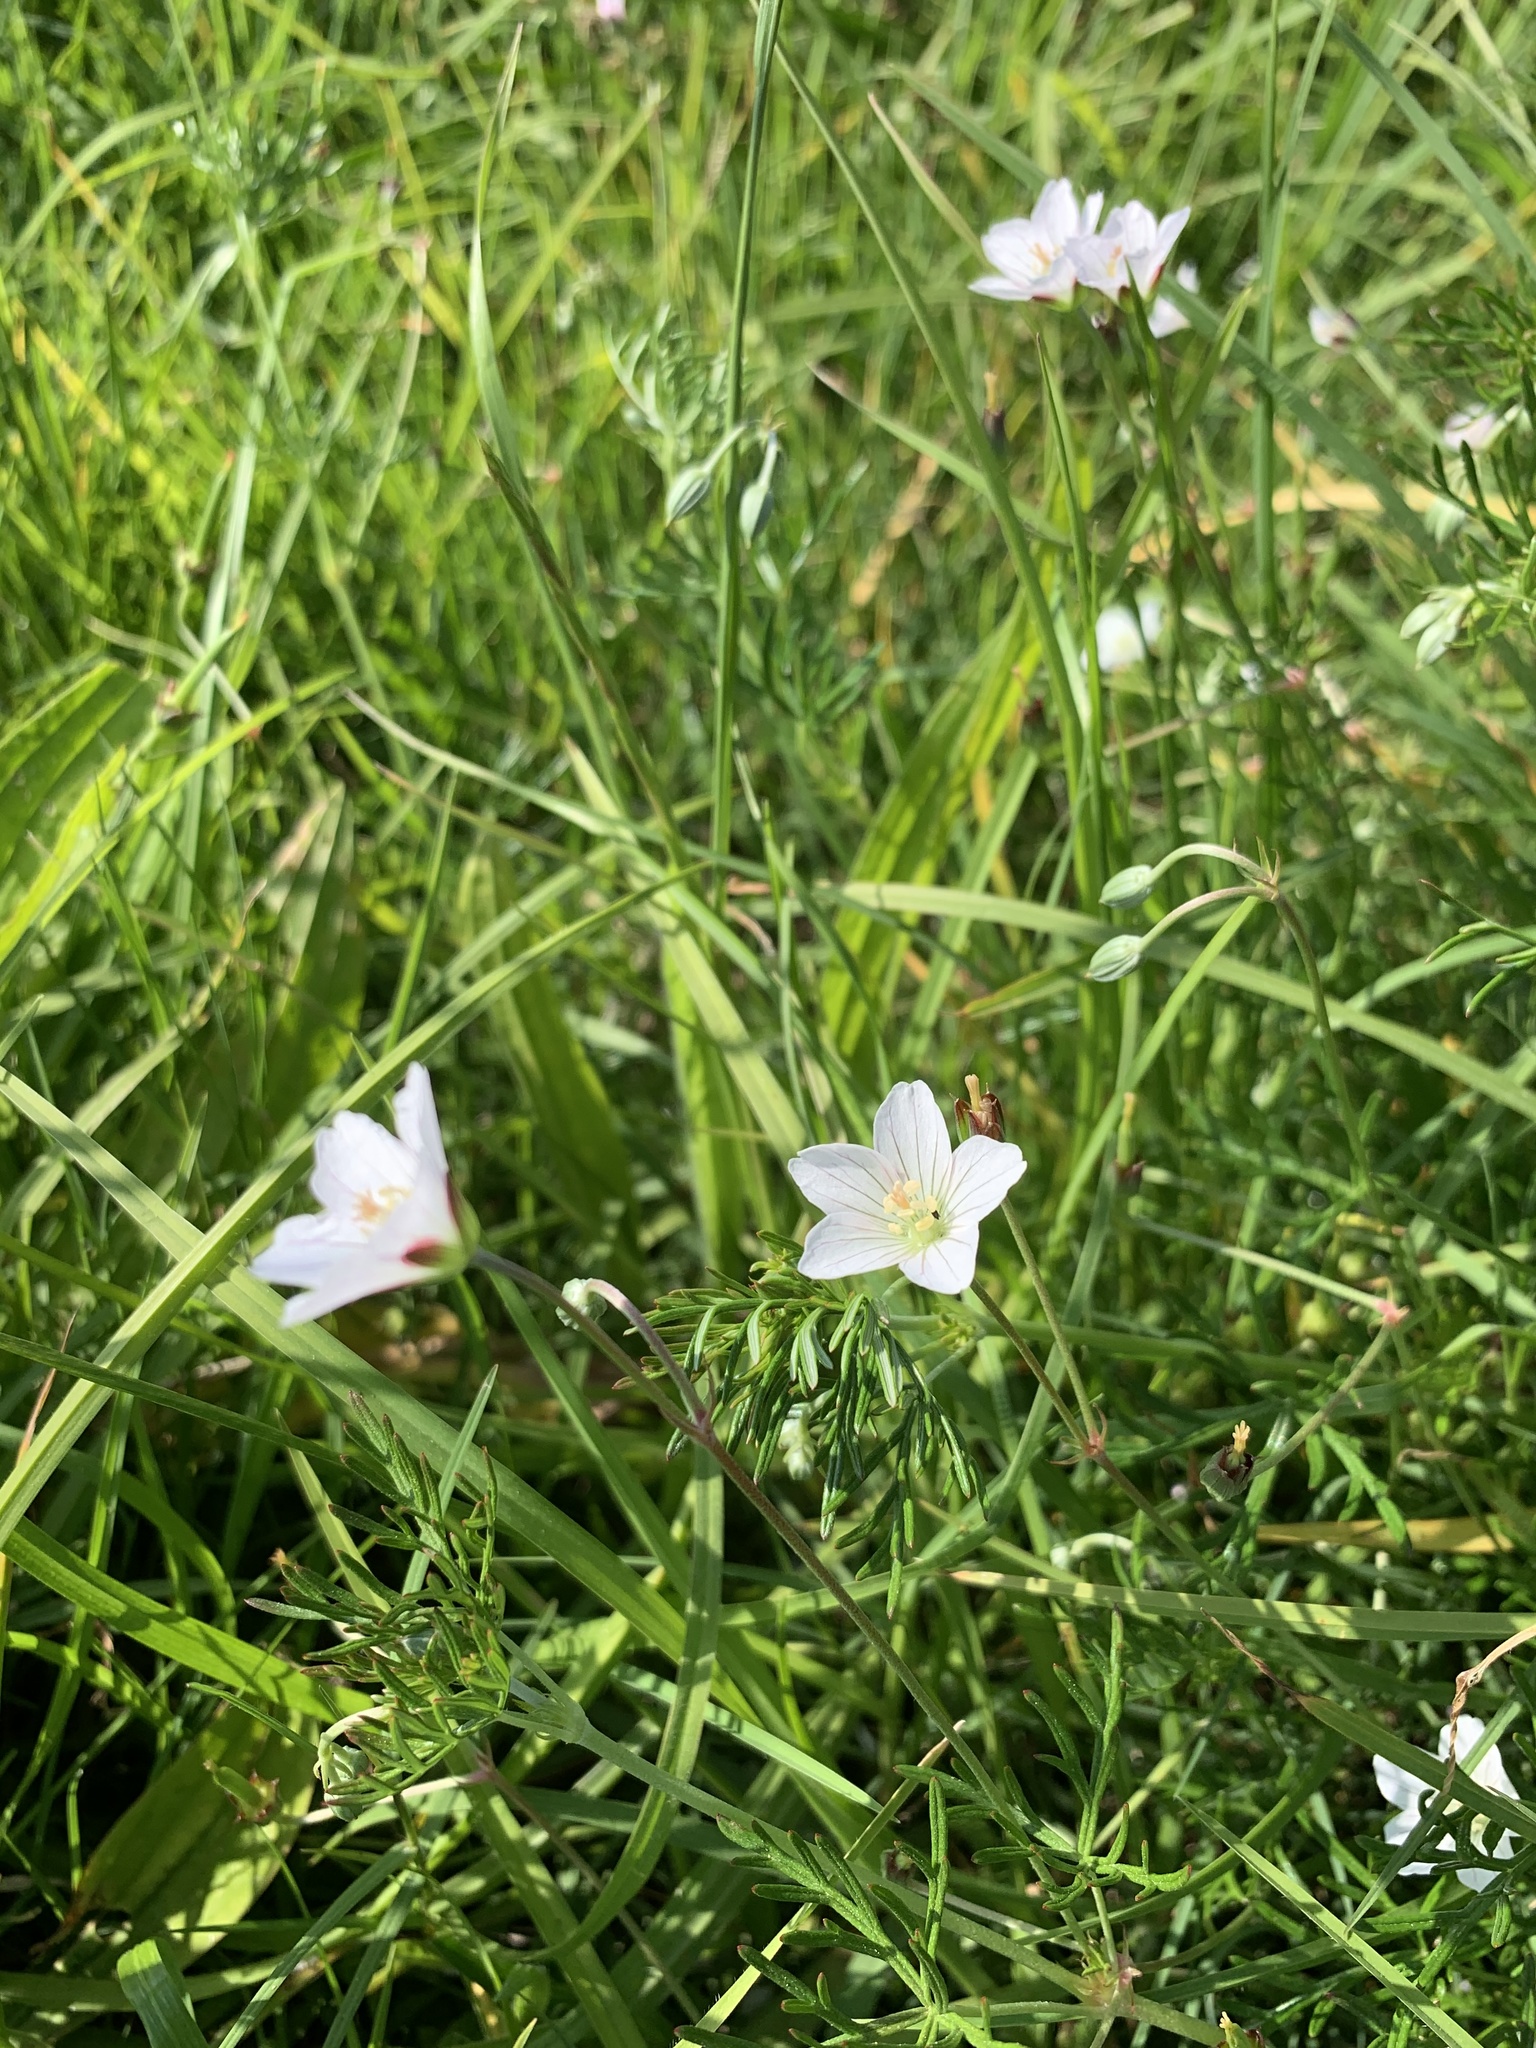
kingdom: Plantae
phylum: Tracheophyta
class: Magnoliopsida
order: Geraniales
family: Geraniaceae
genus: Geranium
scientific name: Geranium incanum
